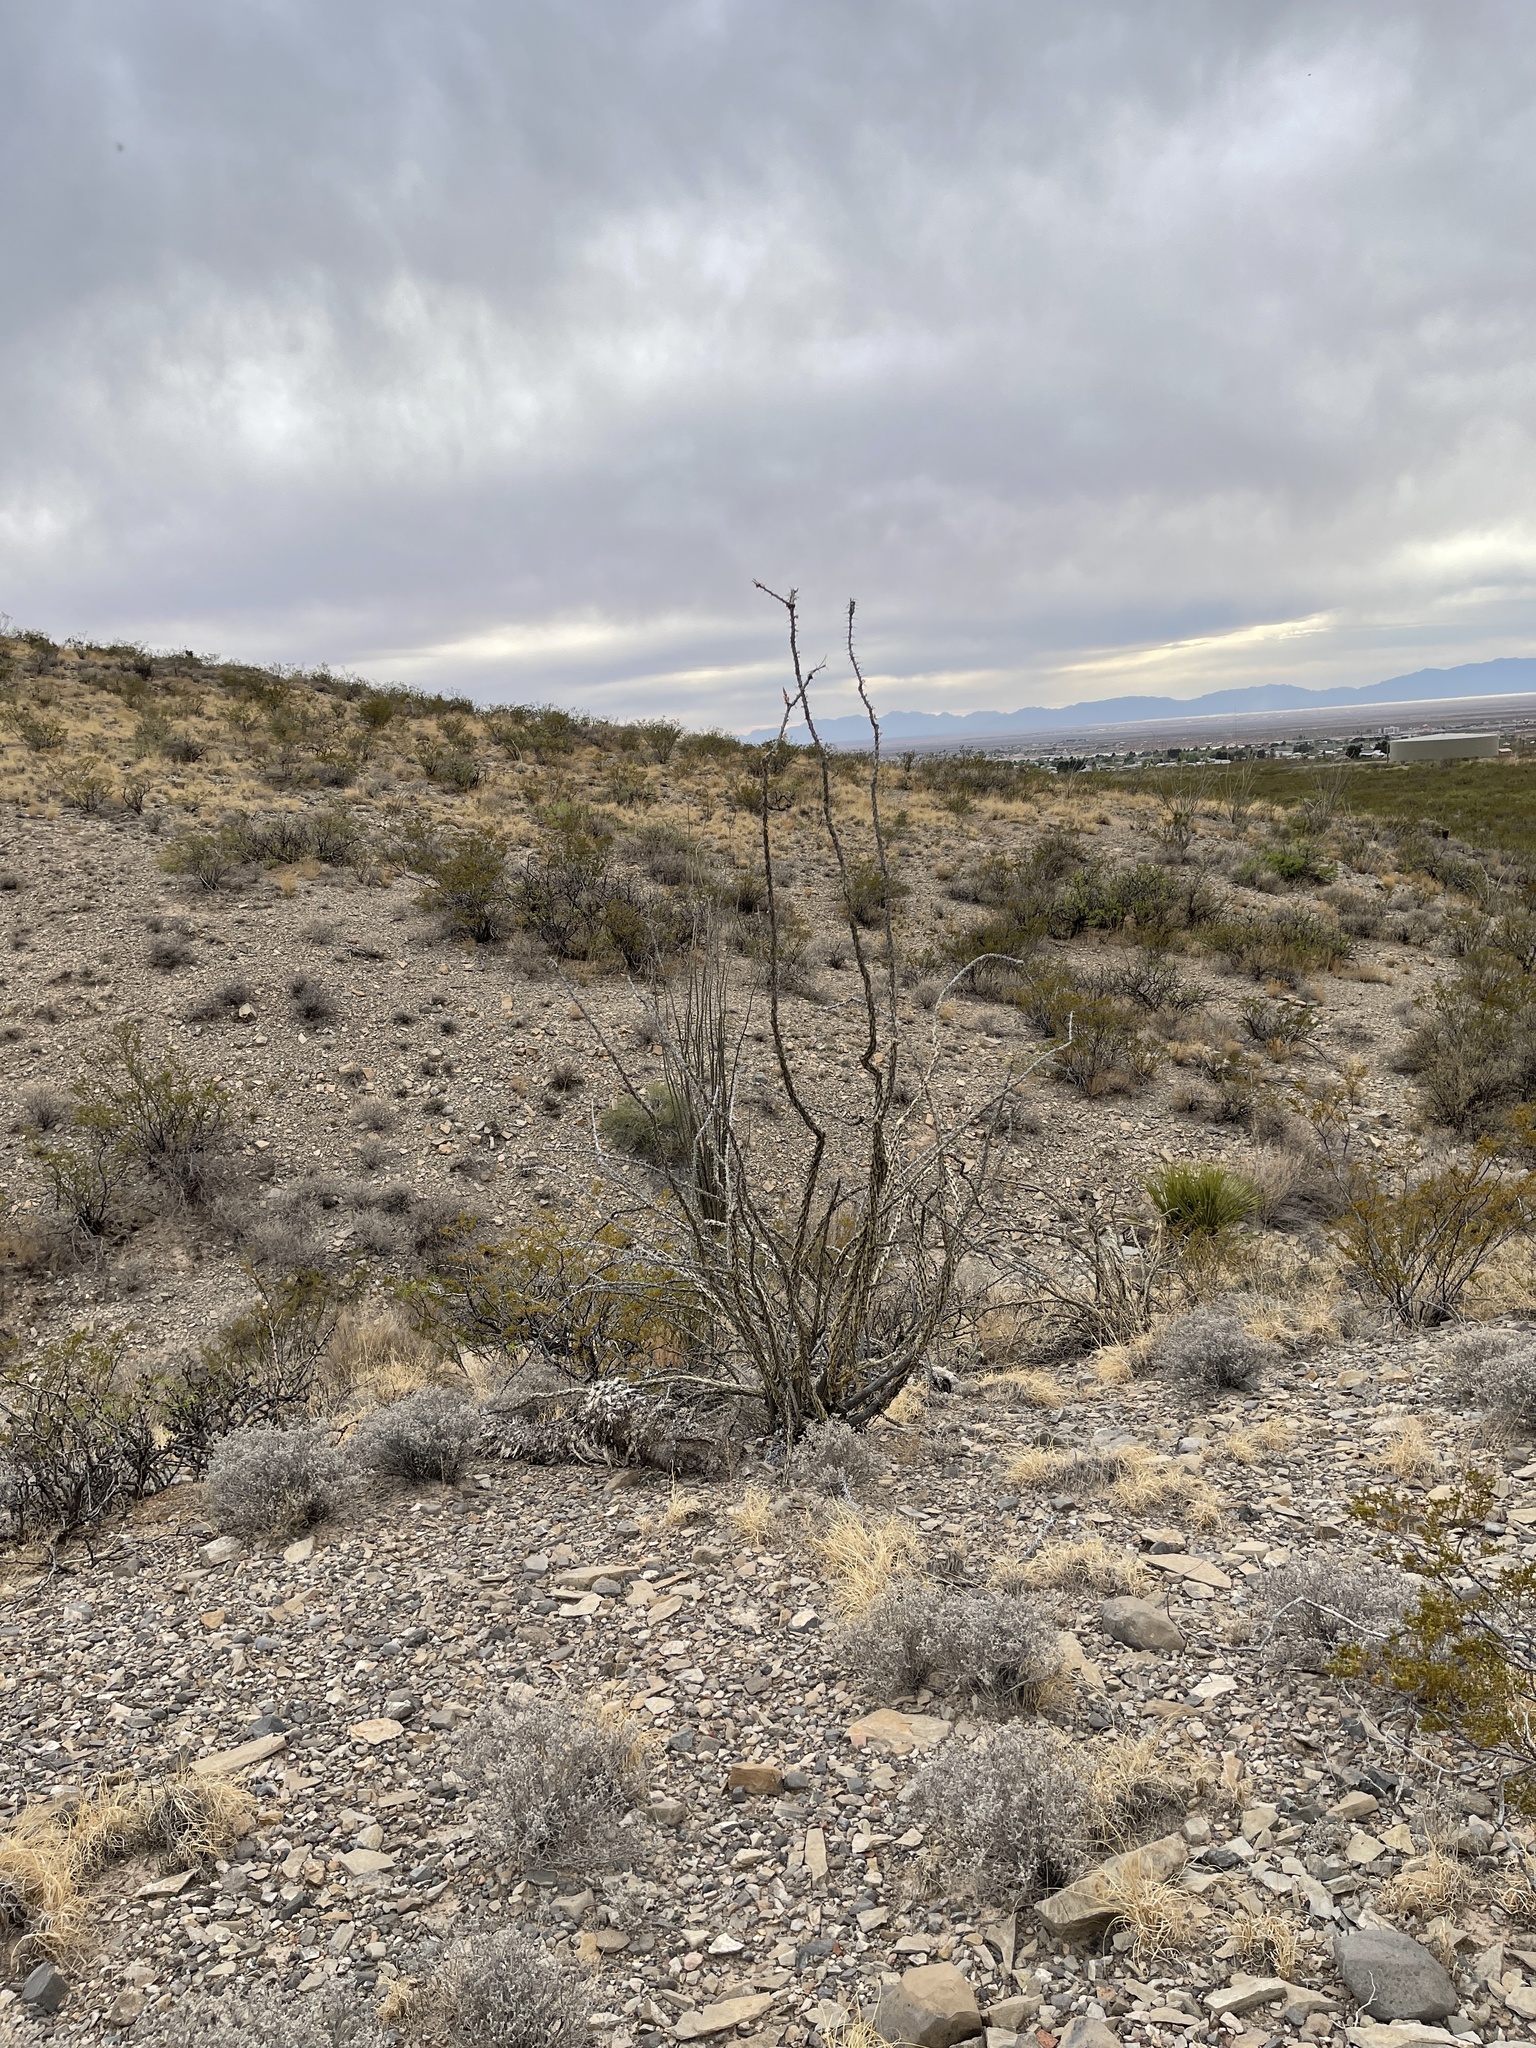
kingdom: Plantae
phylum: Tracheophyta
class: Magnoliopsida
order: Ericales
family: Fouquieriaceae
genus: Fouquieria
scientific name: Fouquieria splendens
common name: Vine-cactus
